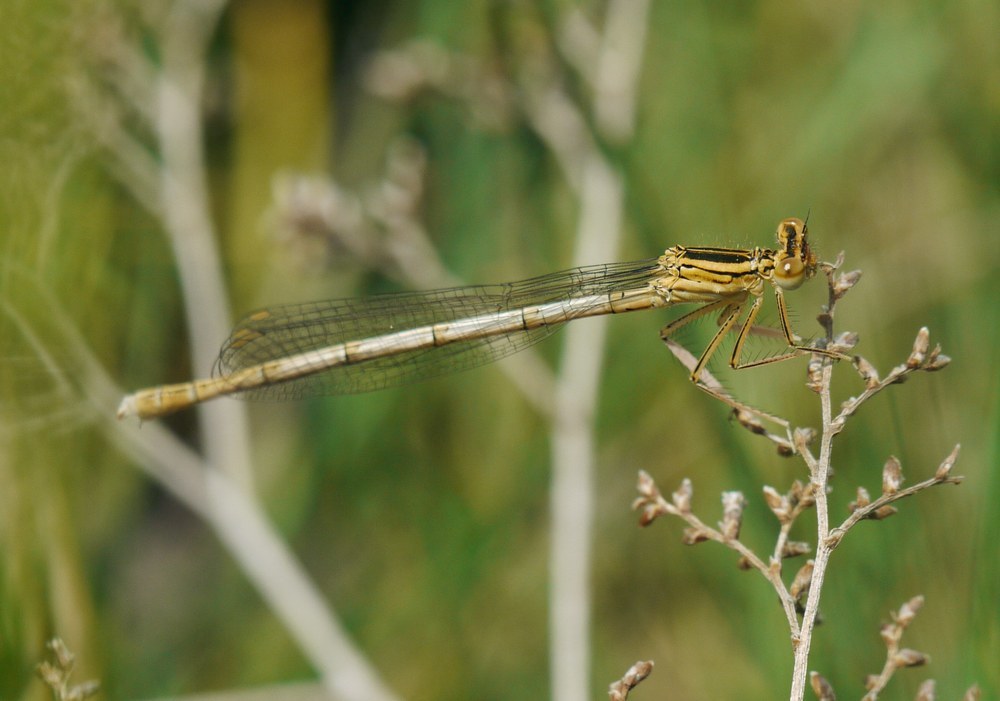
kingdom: Animalia
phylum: Arthropoda
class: Insecta
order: Odonata
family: Platycnemididae
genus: Platycnemis
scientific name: Platycnemis pennipes
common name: White-legged damselfly
